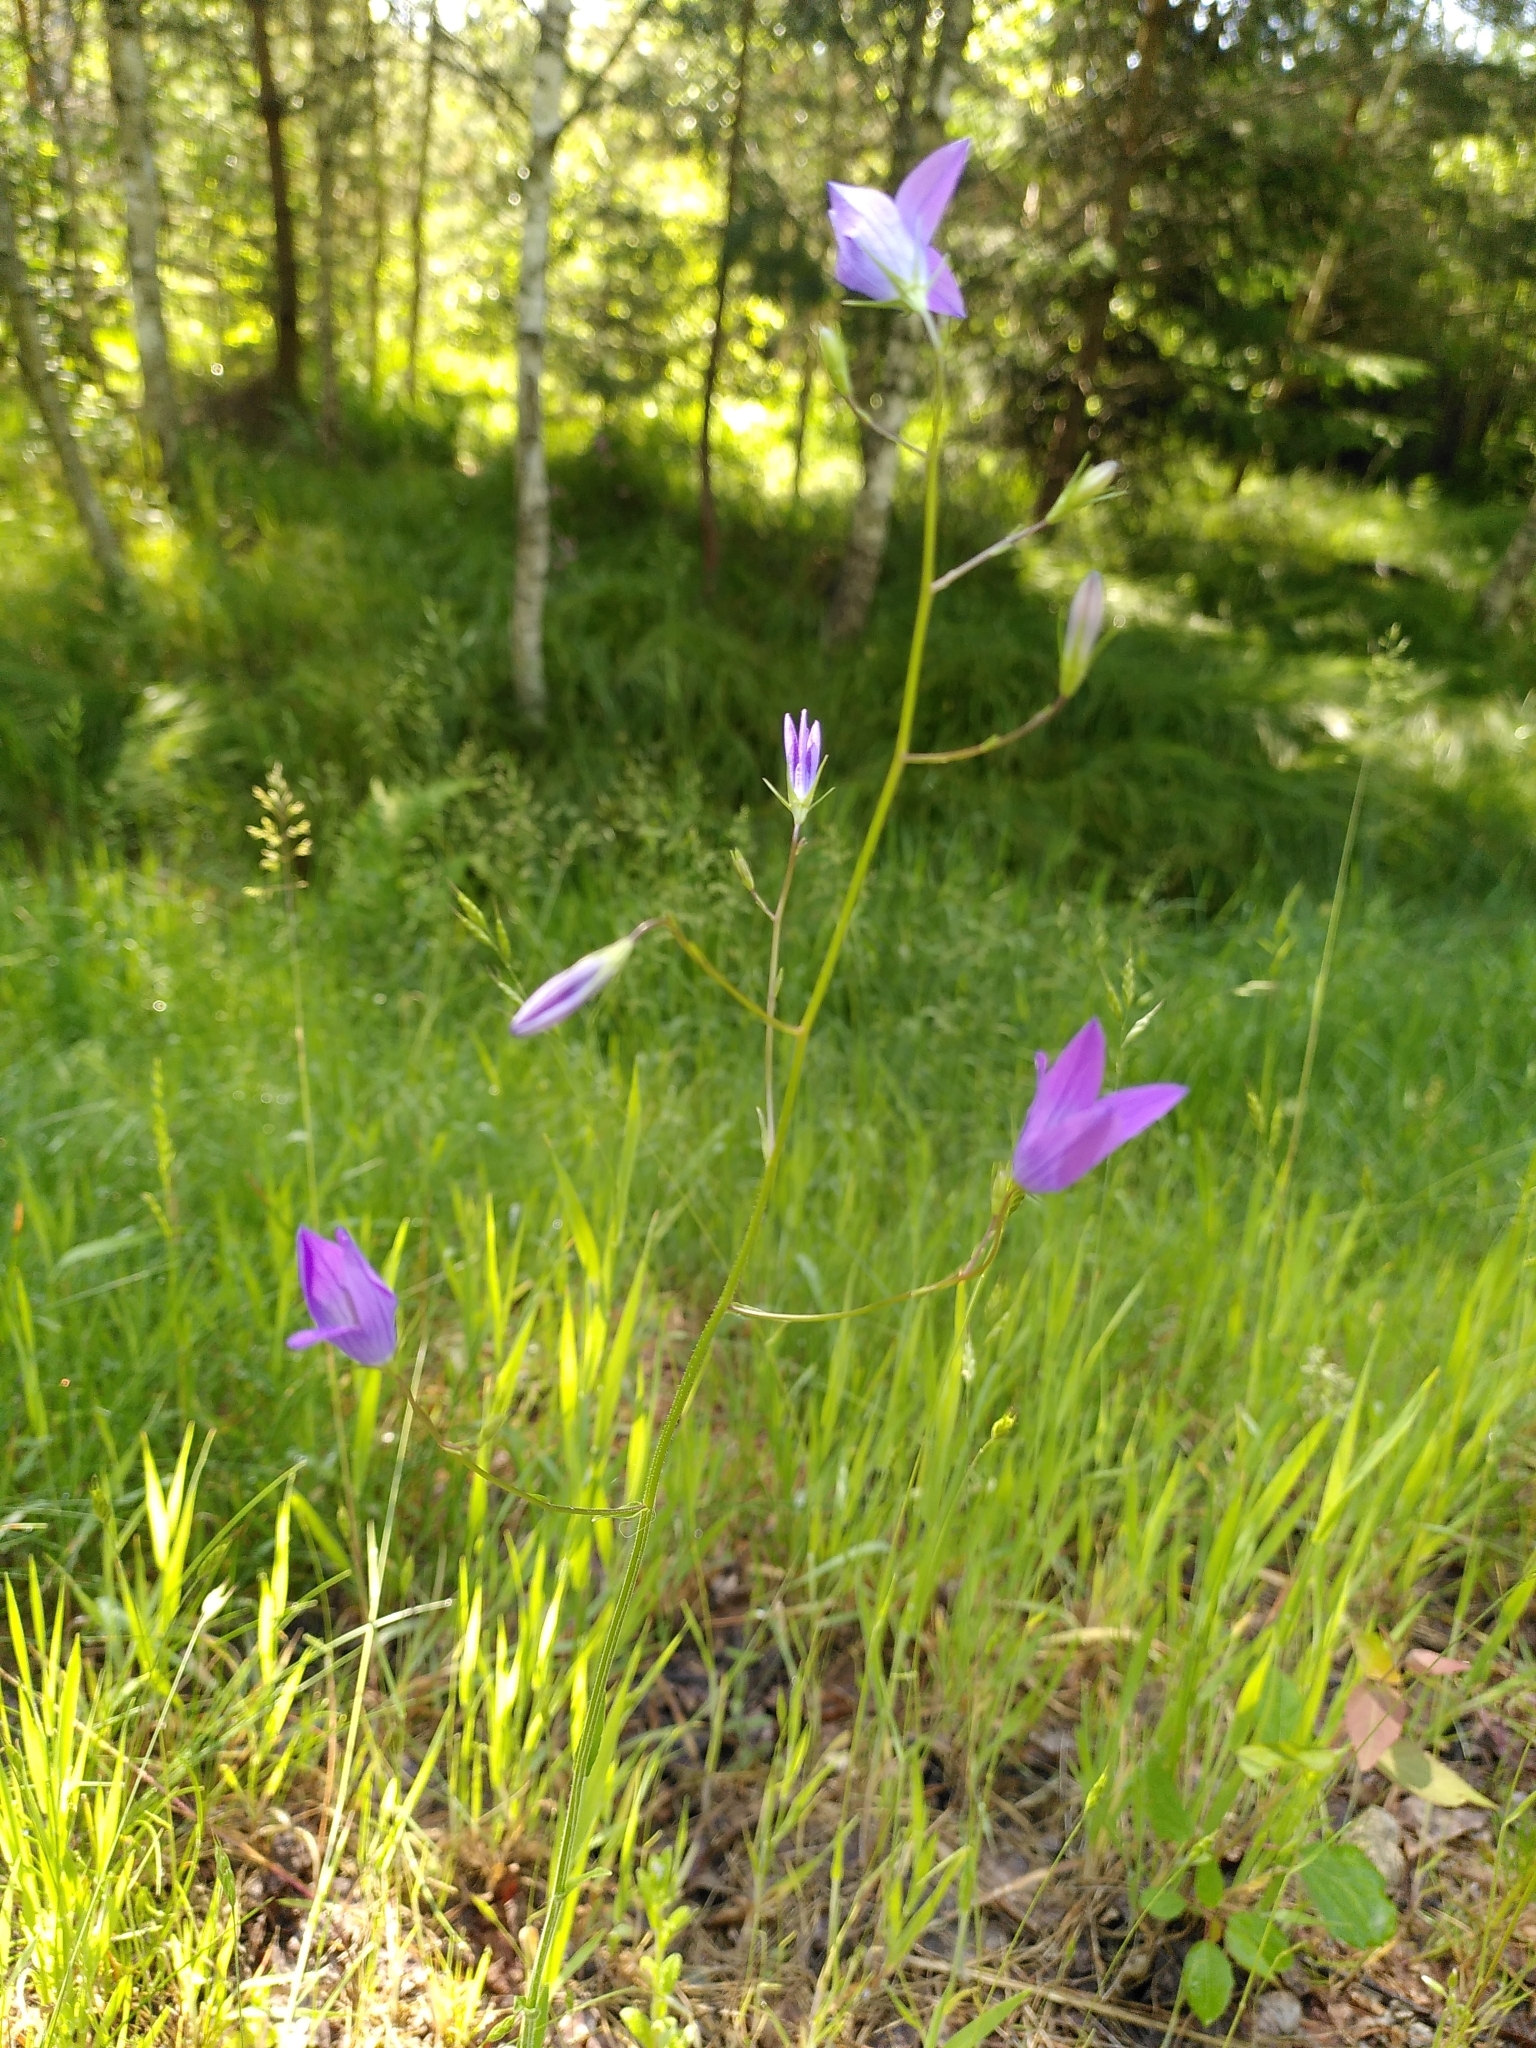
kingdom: Plantae
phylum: Tracheophyta
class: Magnoliopsida
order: Asterales
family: Campanulaceae
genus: Campanula
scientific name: Campanula patula
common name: Spreading bellflower
